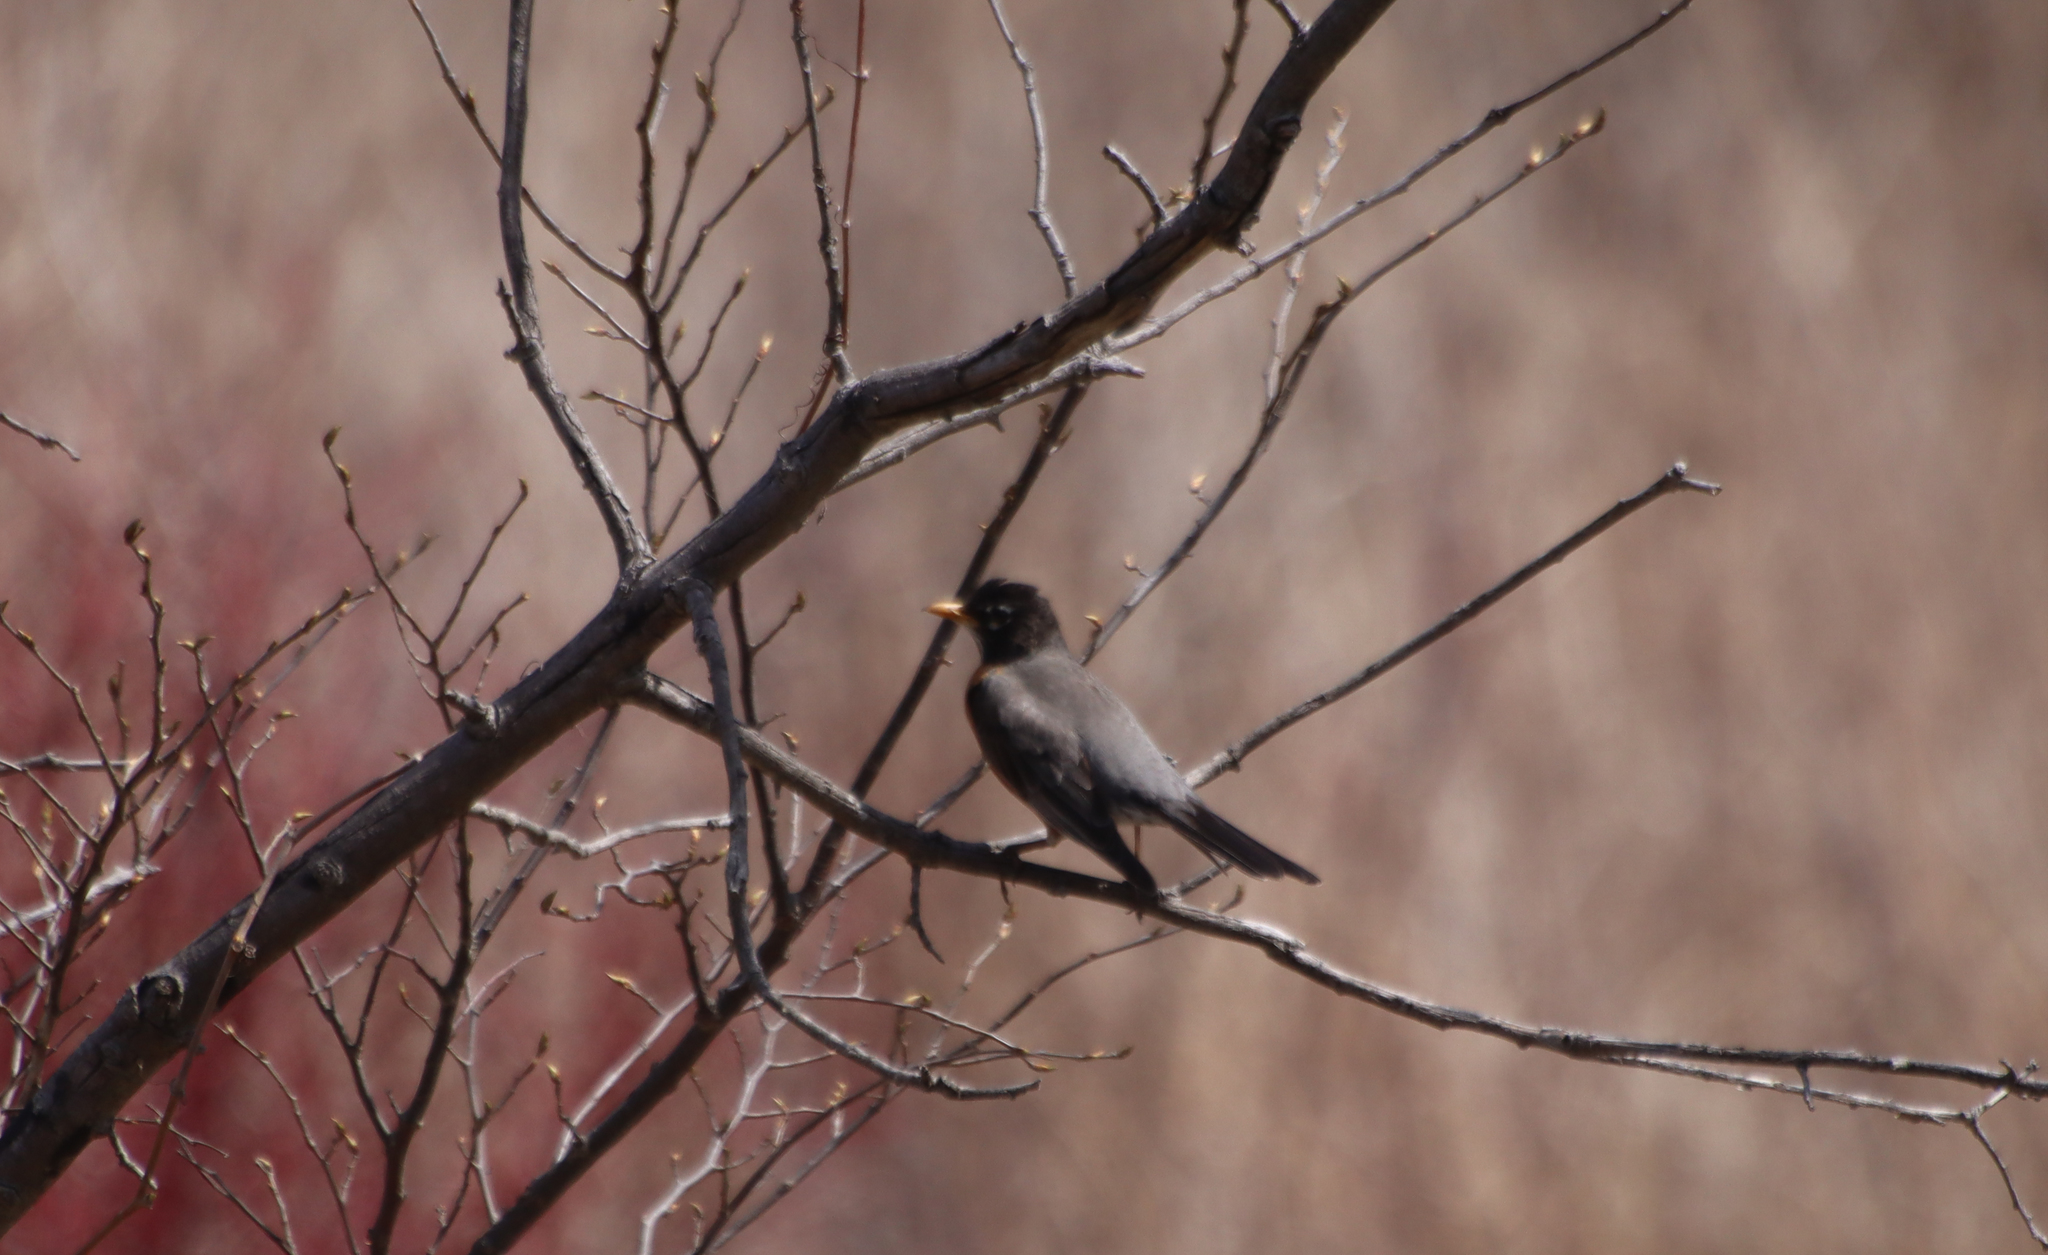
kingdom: Animalia
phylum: Chordata
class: Aves
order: Passeriformes
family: Turdidae
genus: Turdus
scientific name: Turdus migratorius
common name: American robin
